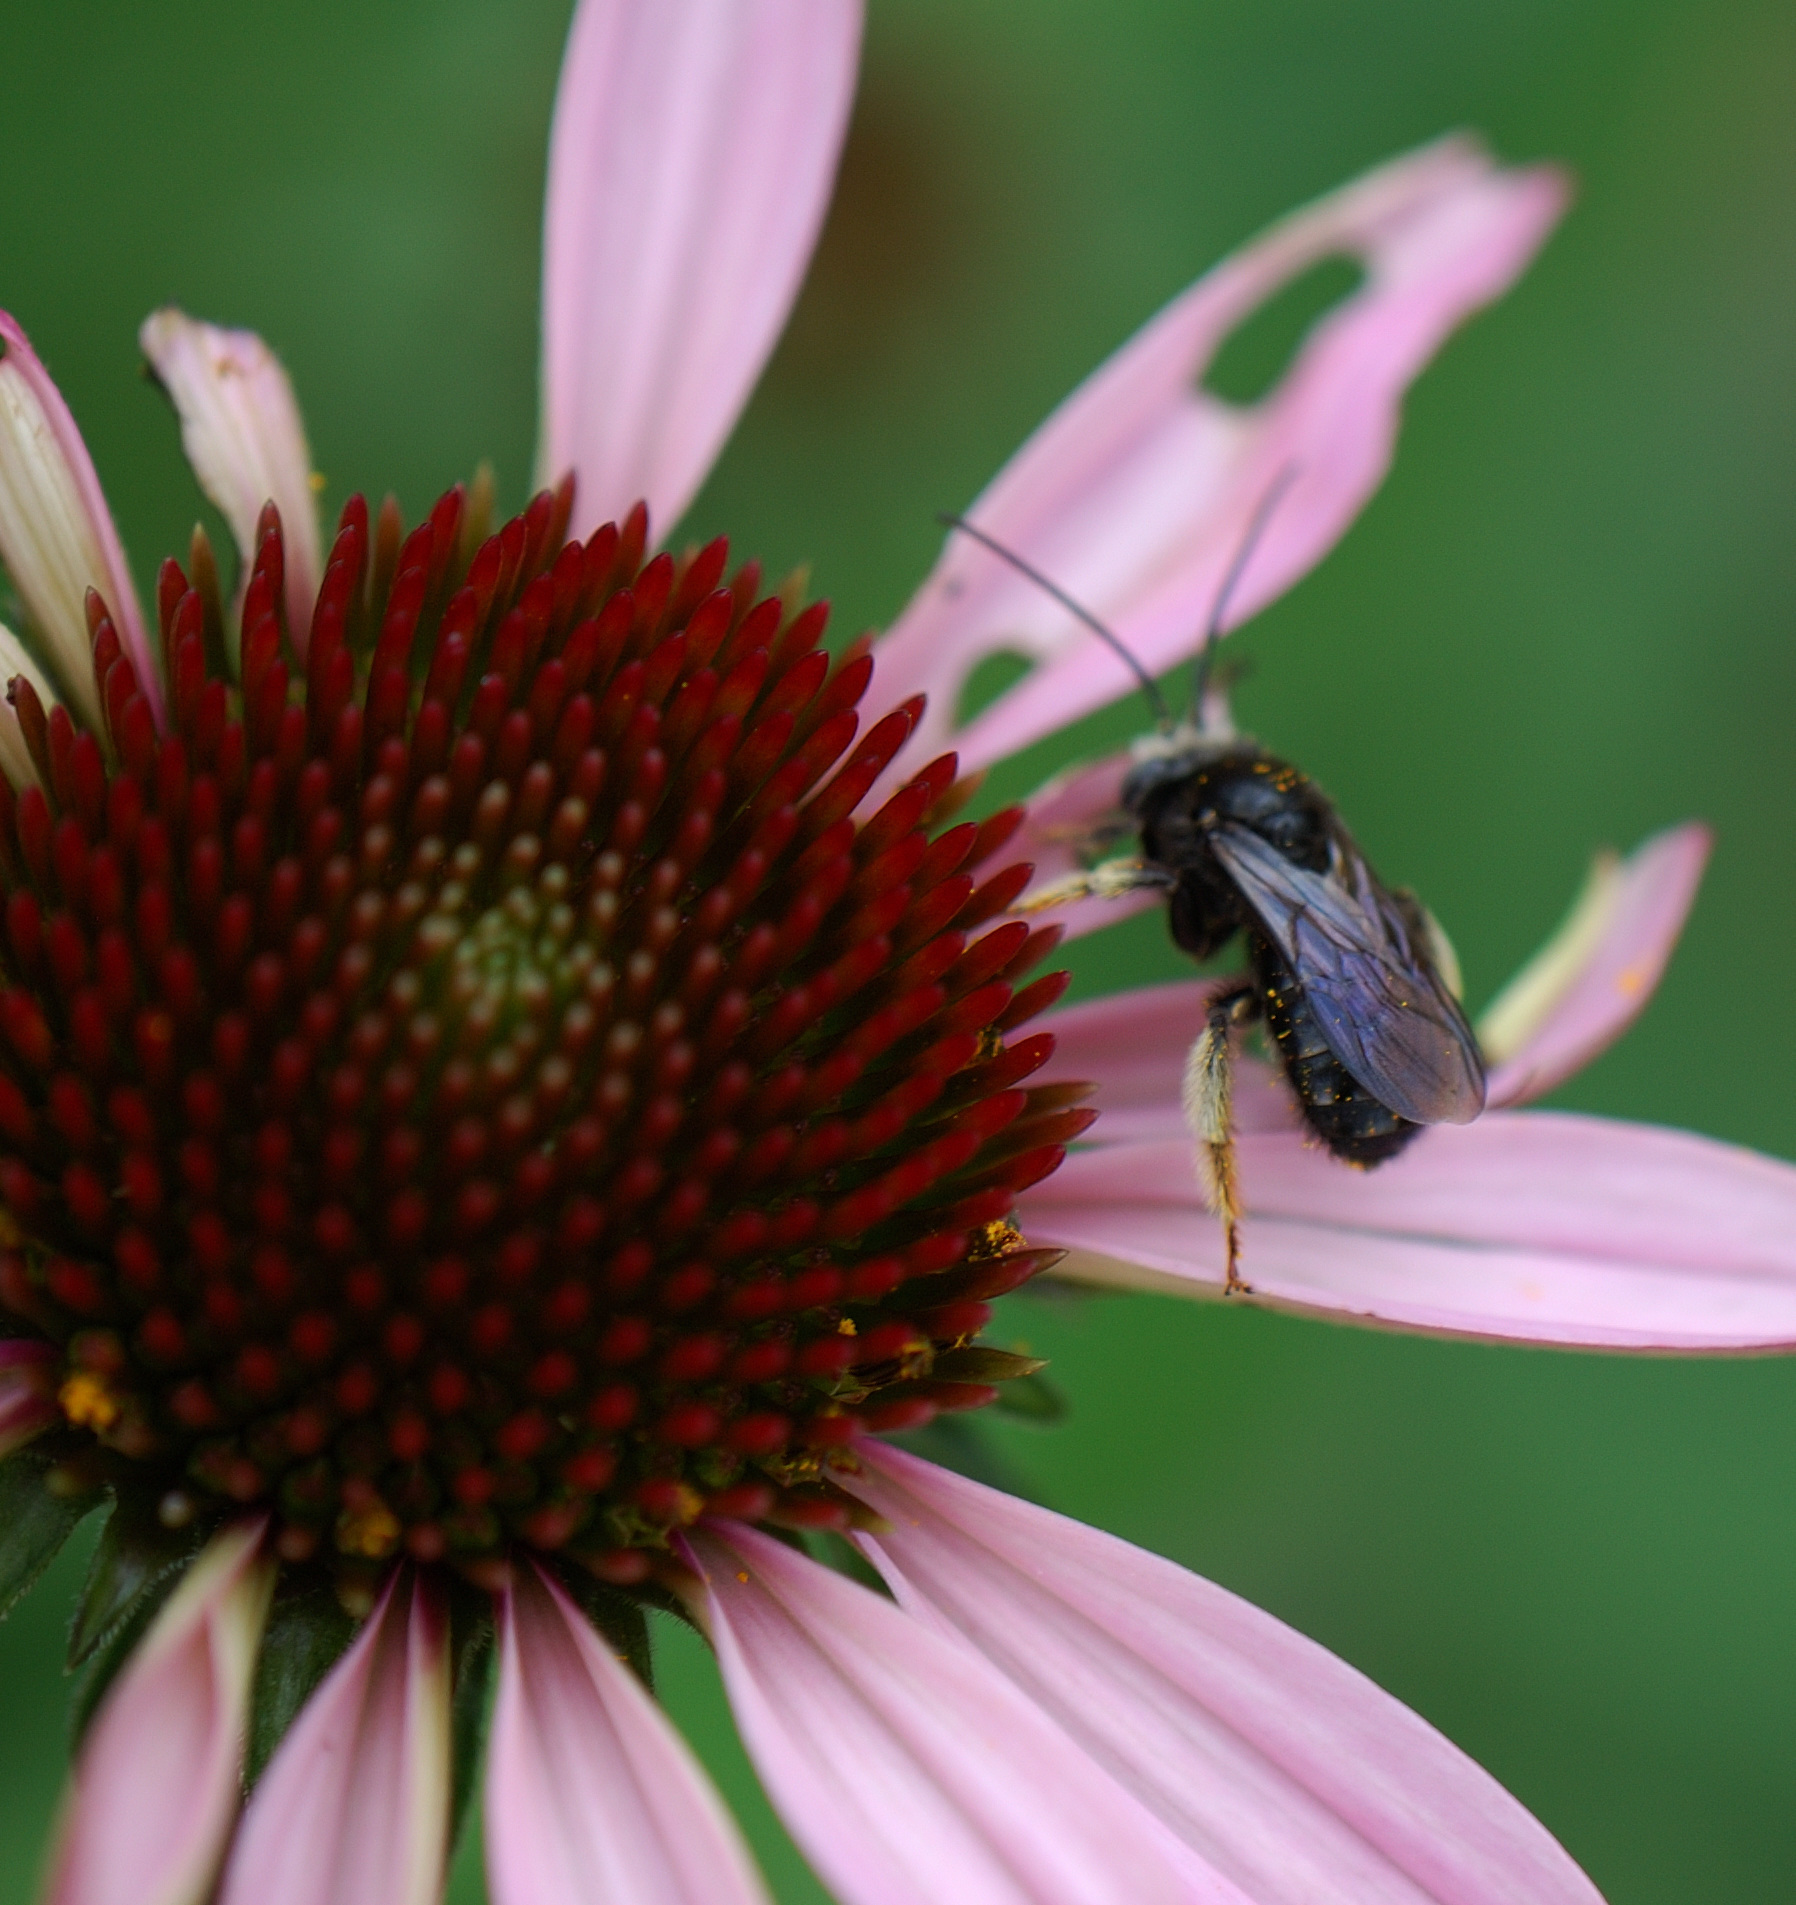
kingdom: Animalia
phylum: Arthropoda
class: Insecta
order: Hymenoptera
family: Apidae
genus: Melissodes
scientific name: Melissodes bimaculatus
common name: Two-spotted long-horned bee
